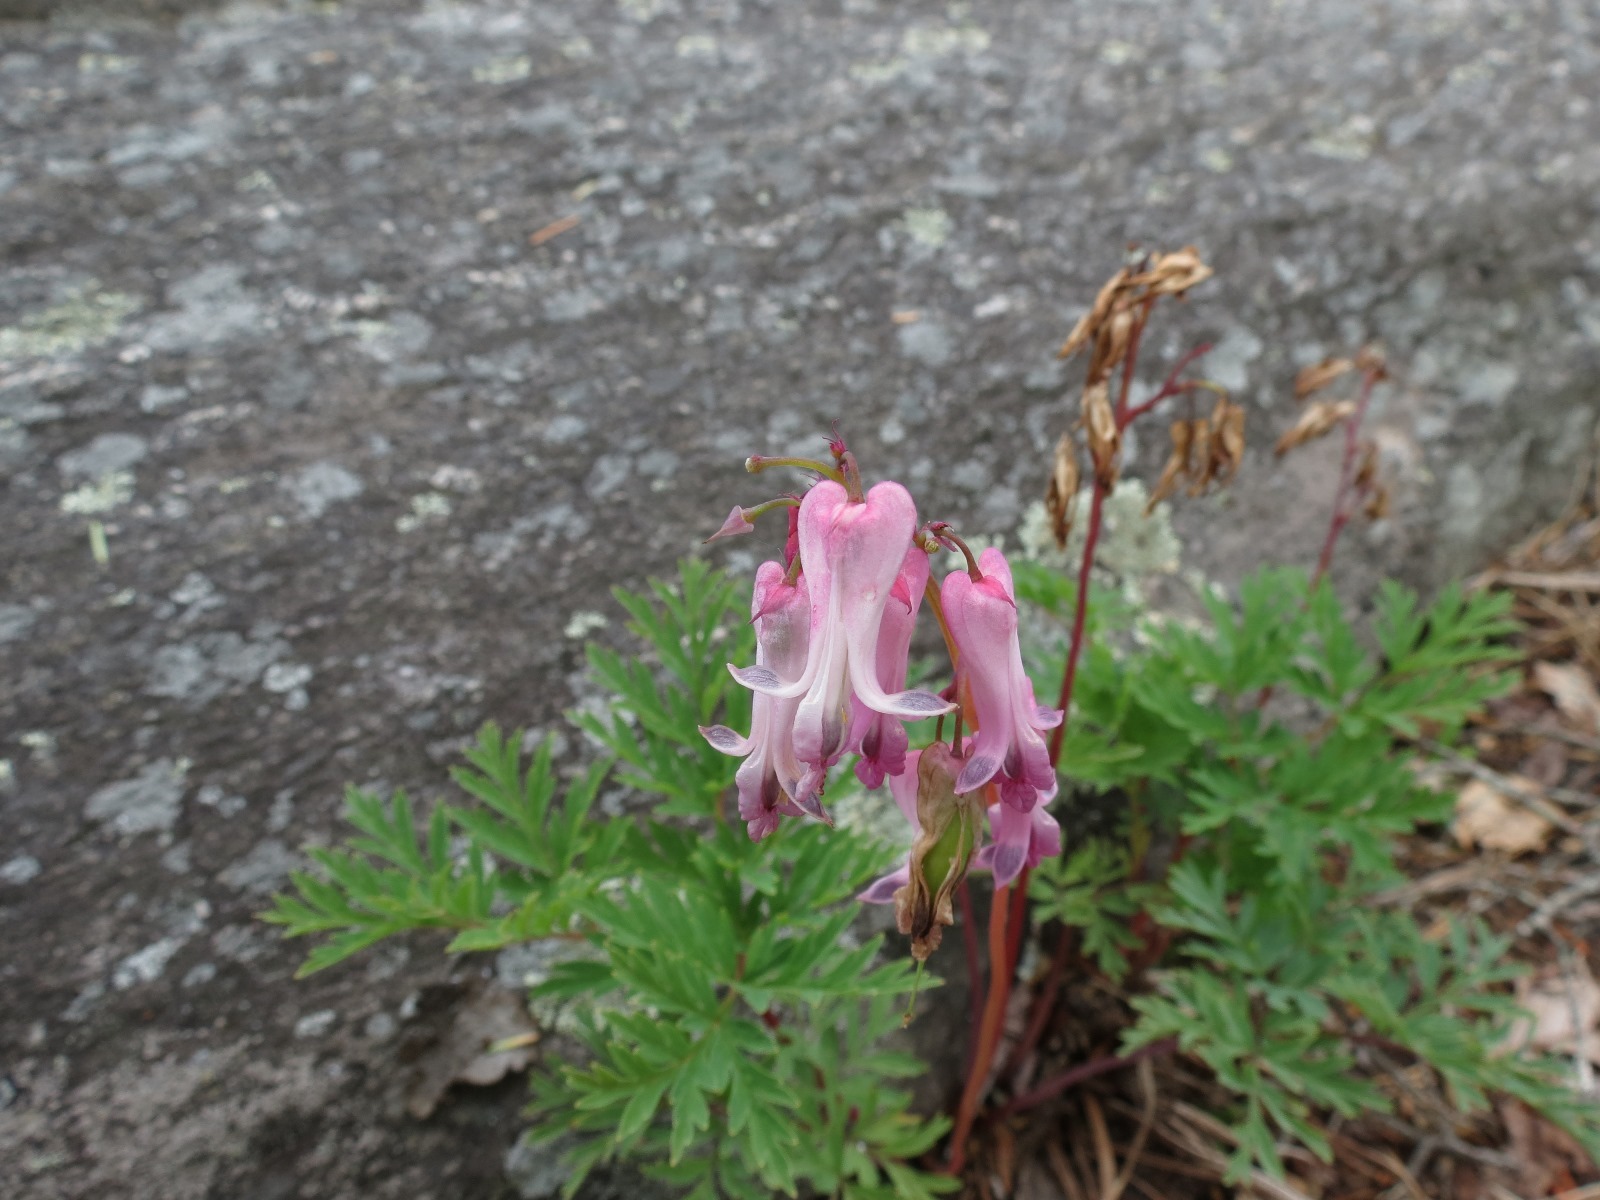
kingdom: Plantae
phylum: Tracheophyta
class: Magnoliopsida
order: Ranunculales
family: Papaveraceae
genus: Dicentra
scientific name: Dicentra eximia
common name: Turkey-corn
